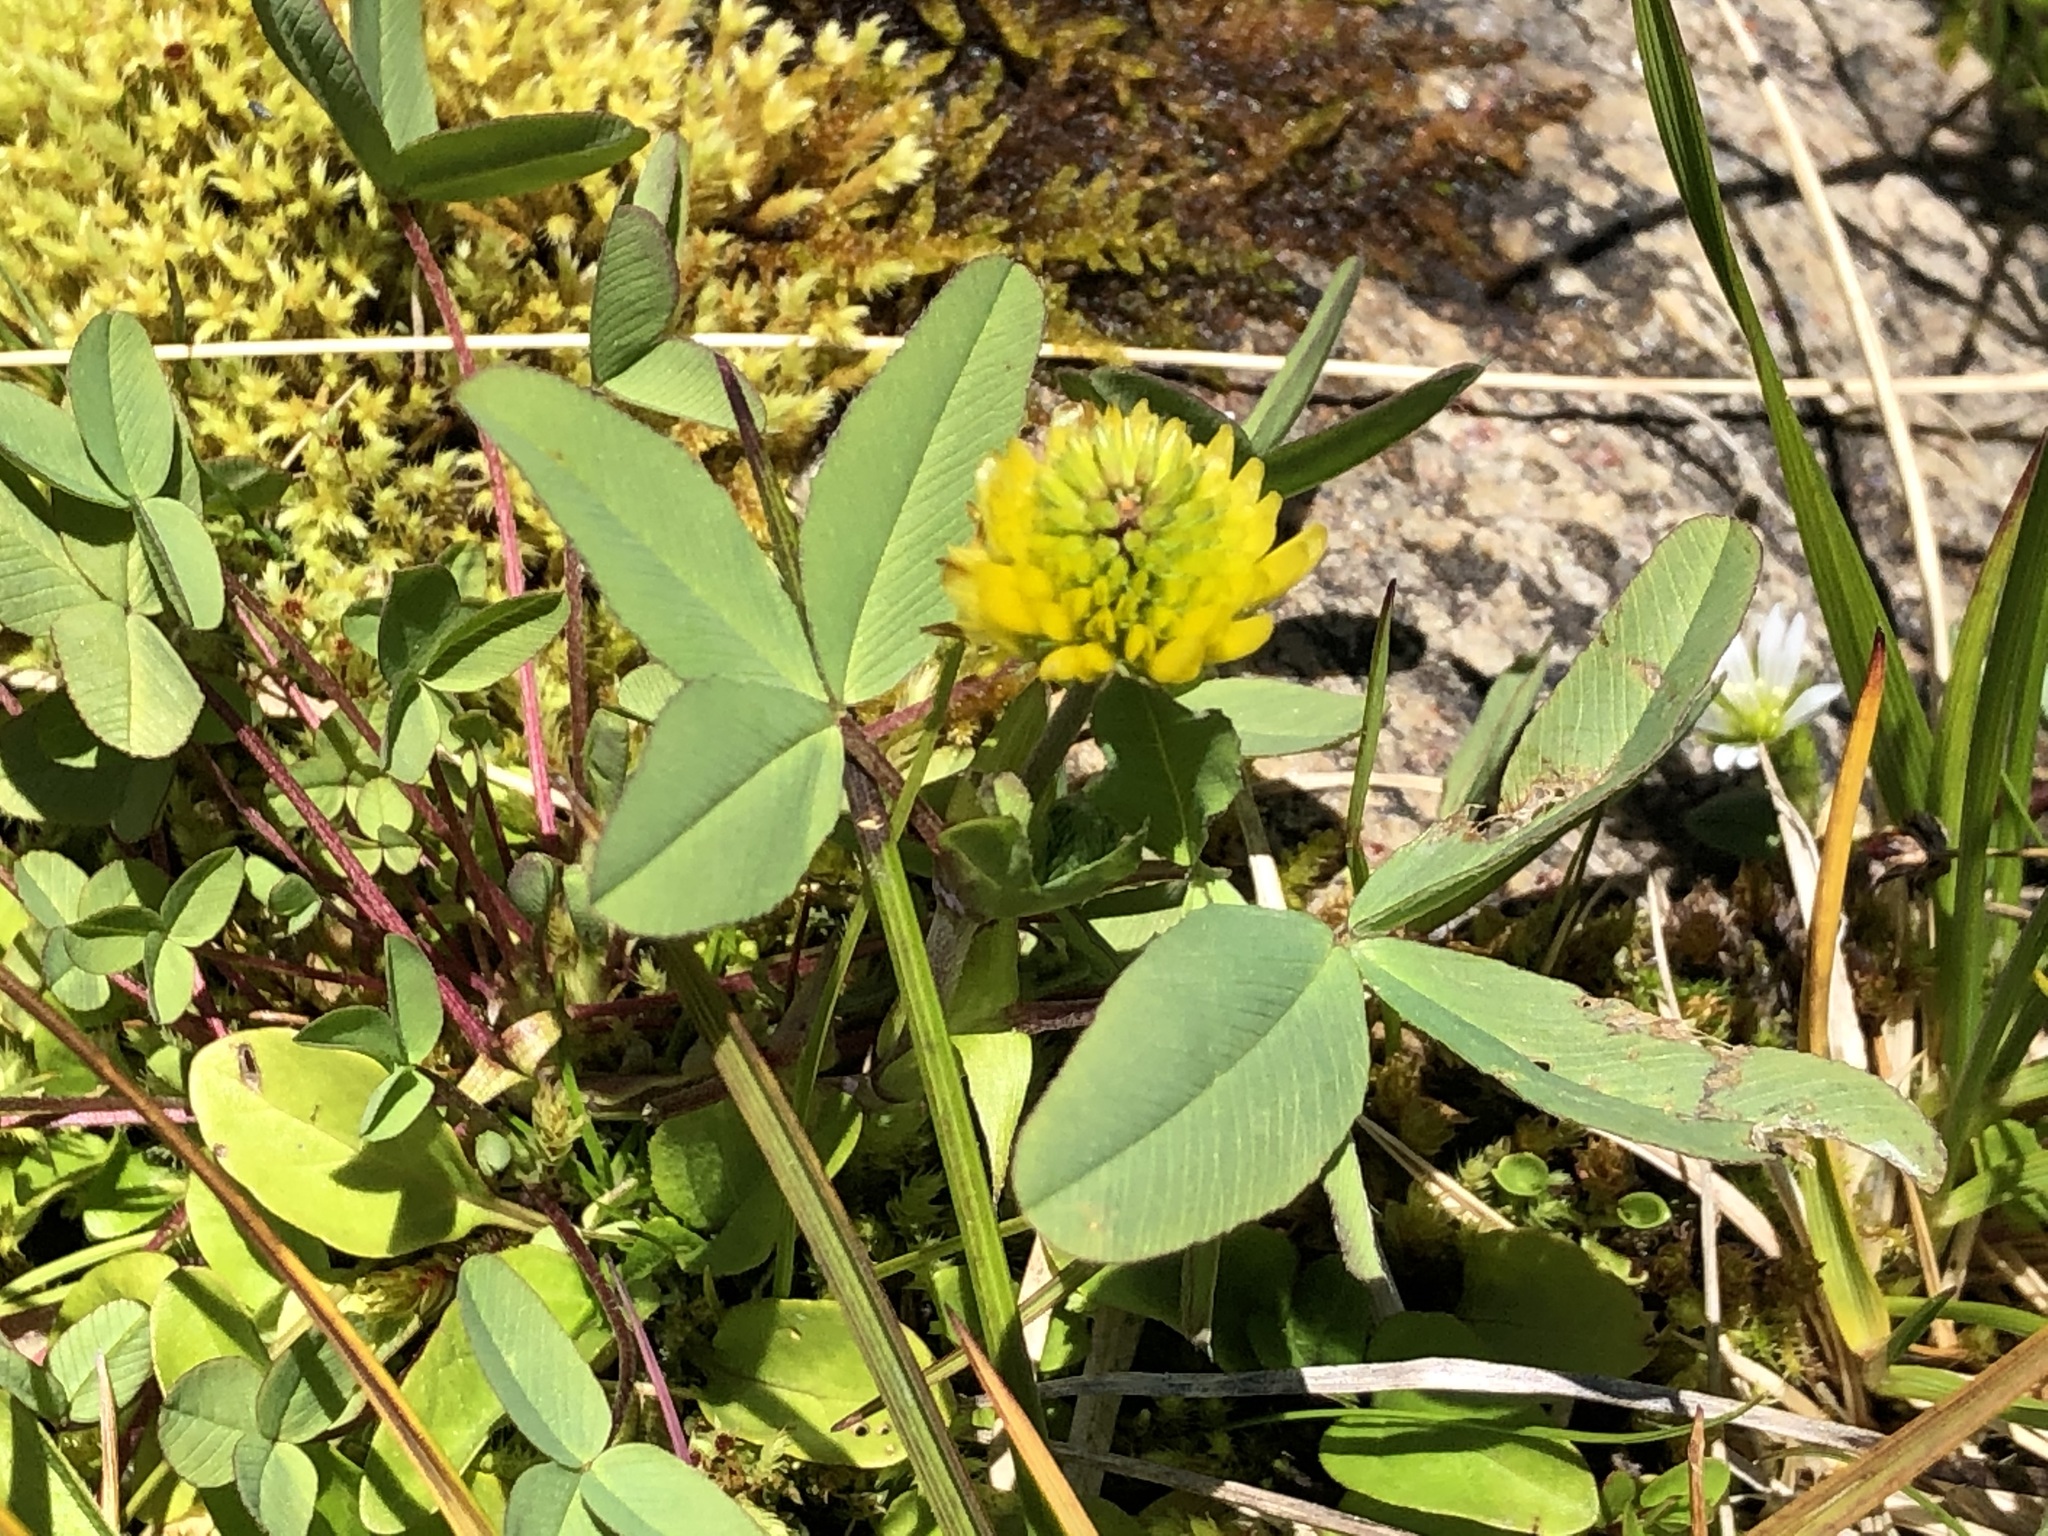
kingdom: Plantae
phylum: Tracheophyta
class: Magnoliopsida
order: Fabales
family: Fabaceae
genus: Trifolium
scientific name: Trifolium aureum
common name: Golden clover
